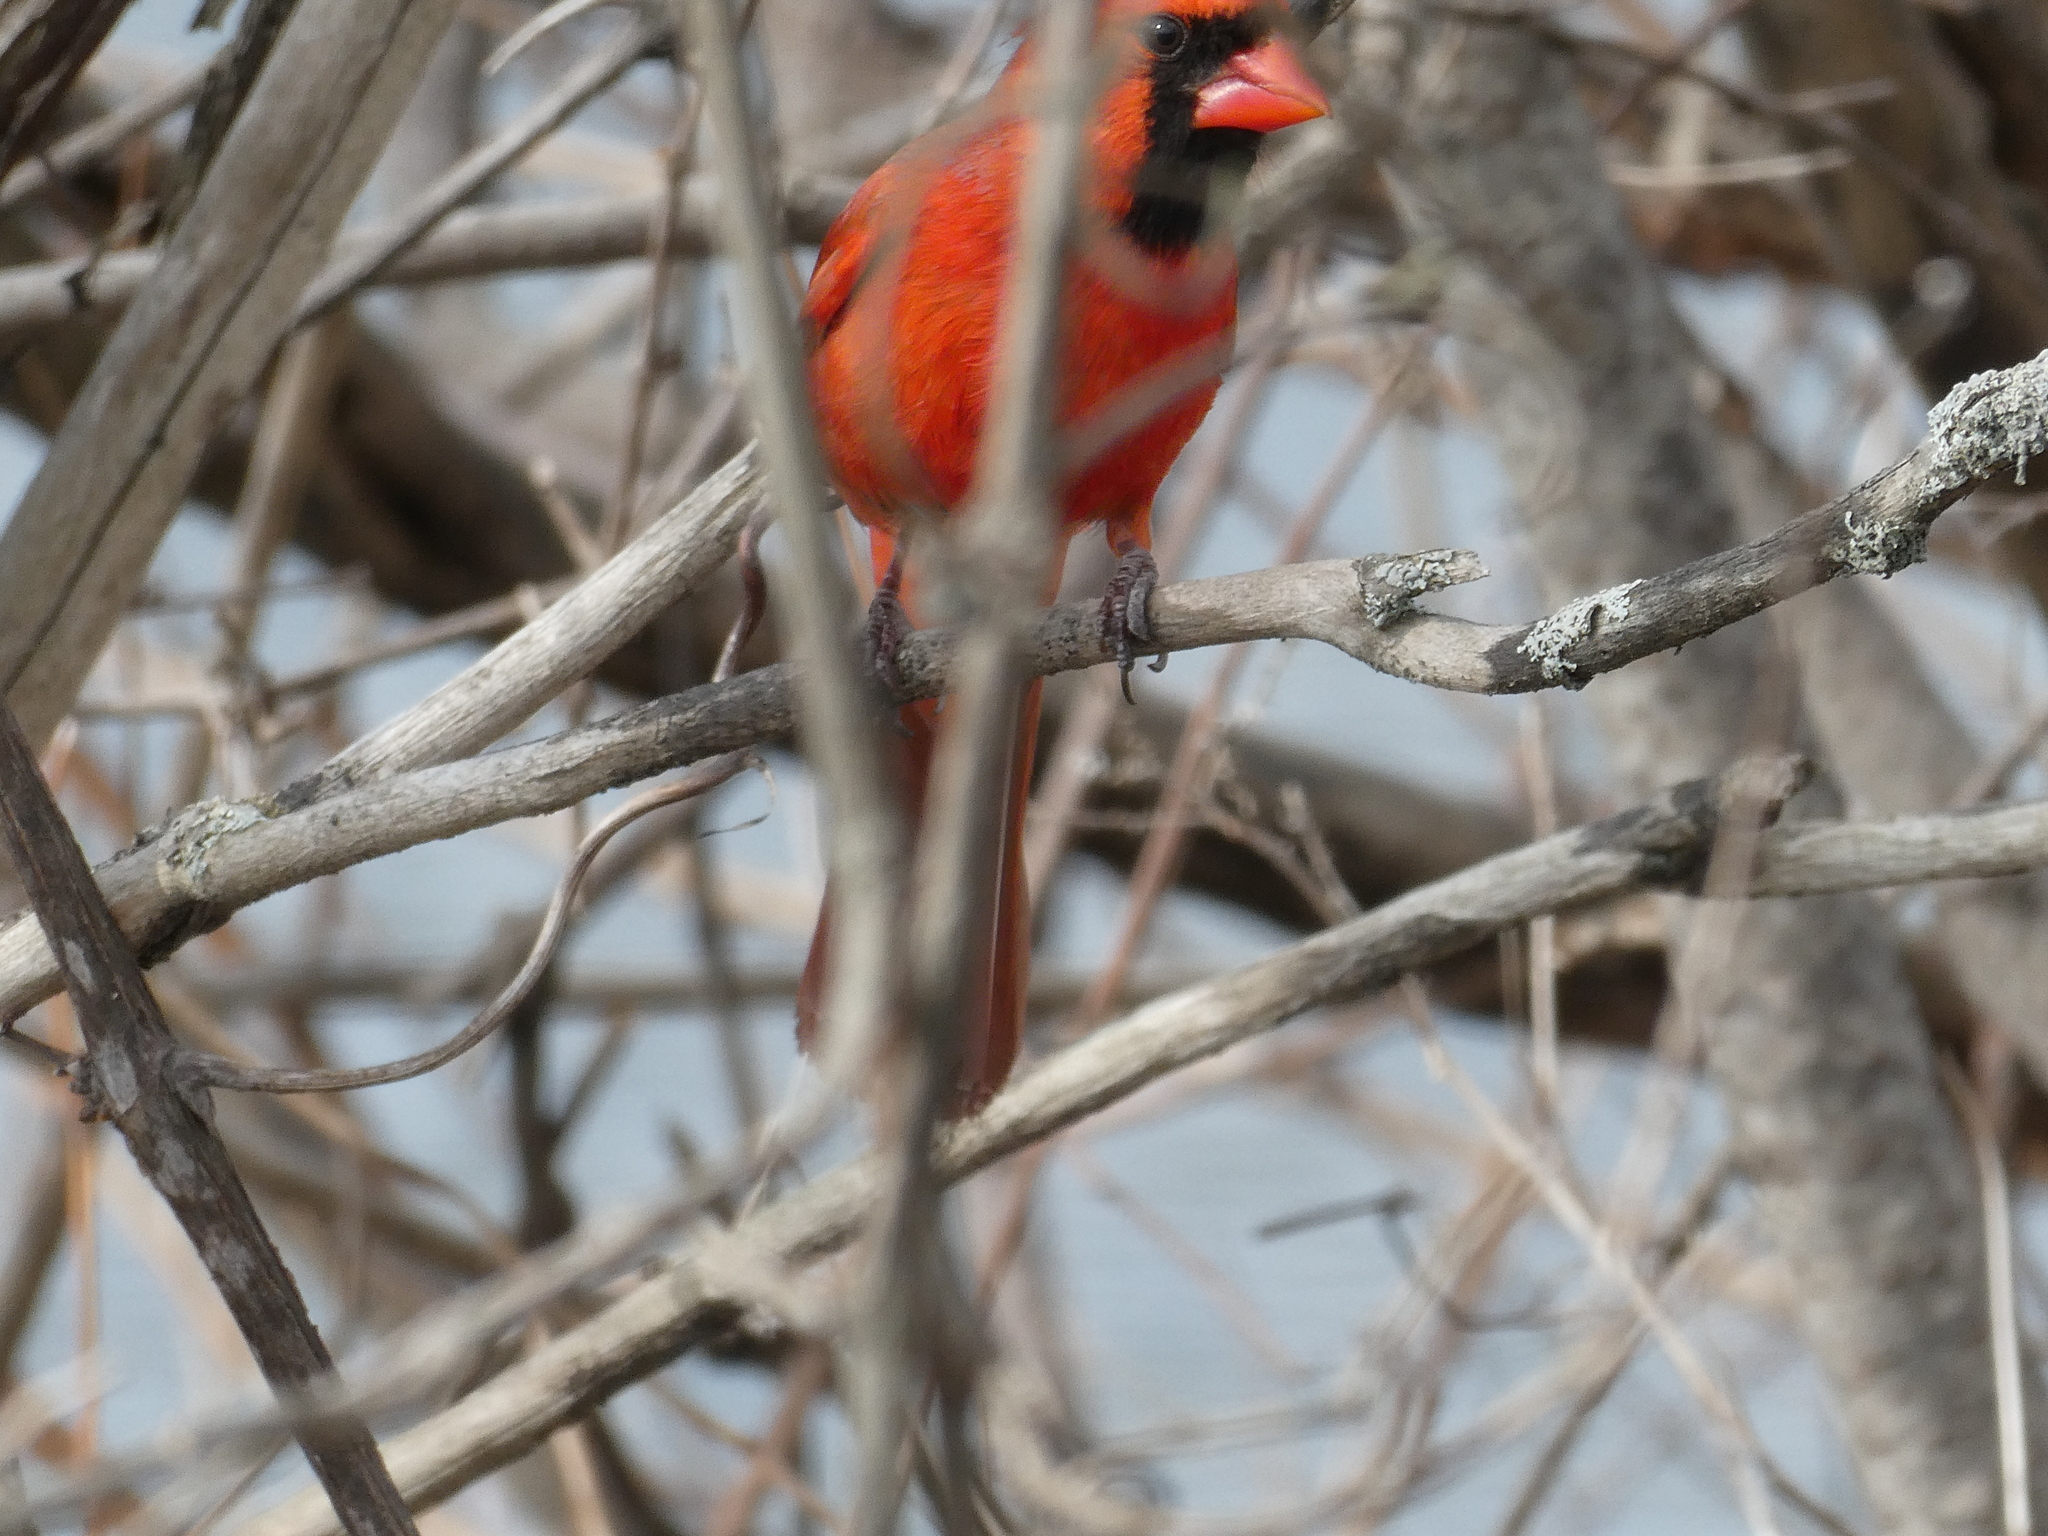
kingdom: Animalia
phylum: Chordata
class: Aves
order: Passeriformes
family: Cardinalidae
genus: Cardinalis
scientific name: Cardinalis cardinalis
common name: Northern cardinal
